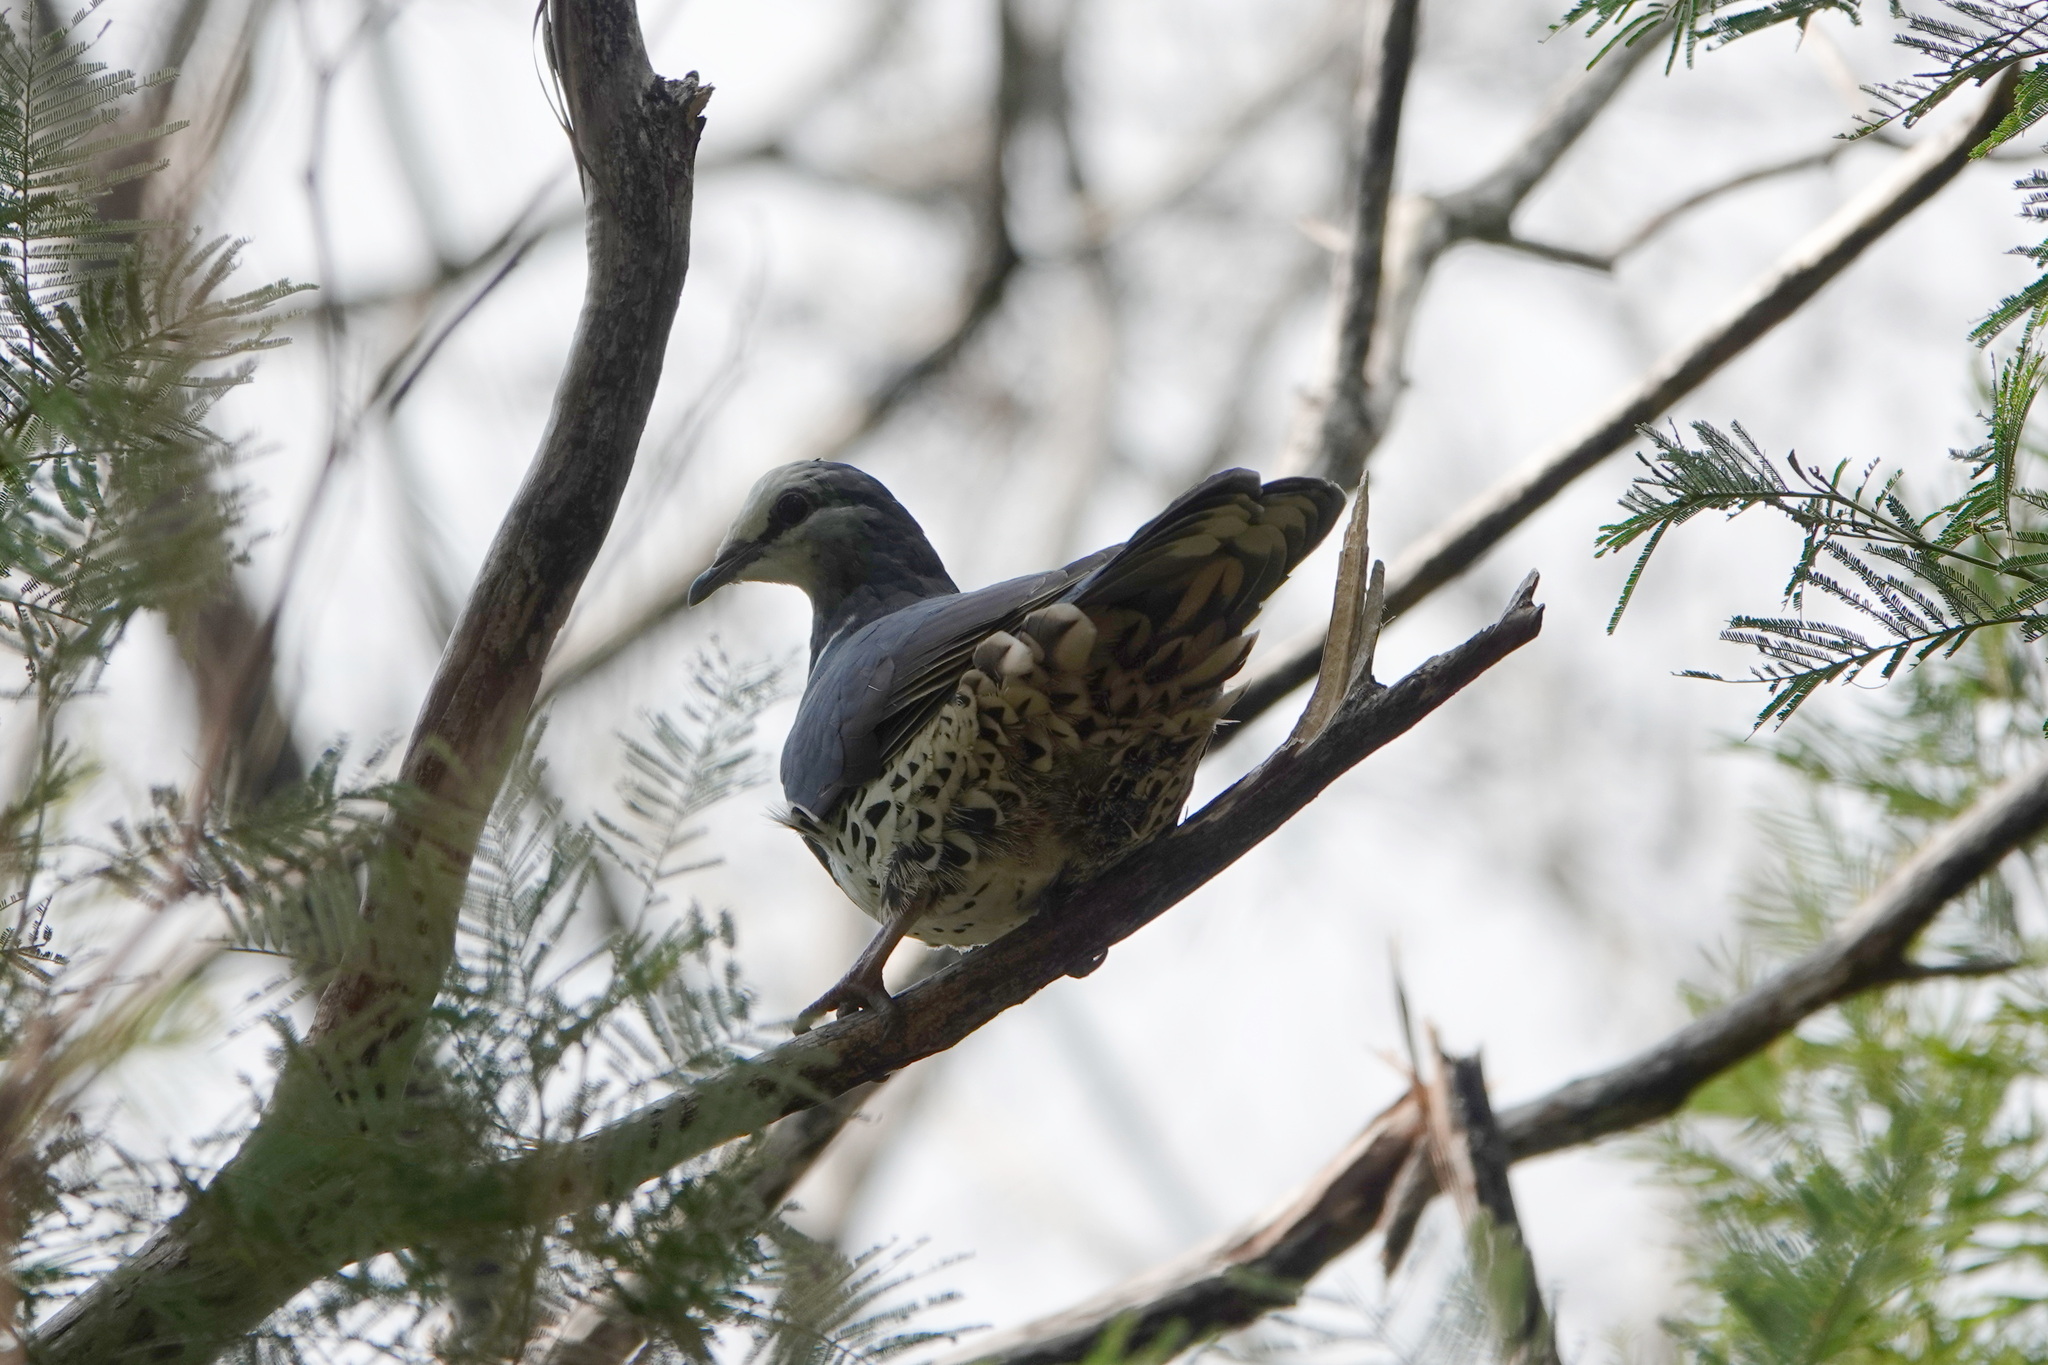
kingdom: Animalia
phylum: Chordata
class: Aves
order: Columbiformes
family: Columbidae
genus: Leucosarcia
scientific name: Leucosarcia melanoleuca
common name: Wonga pigeon
